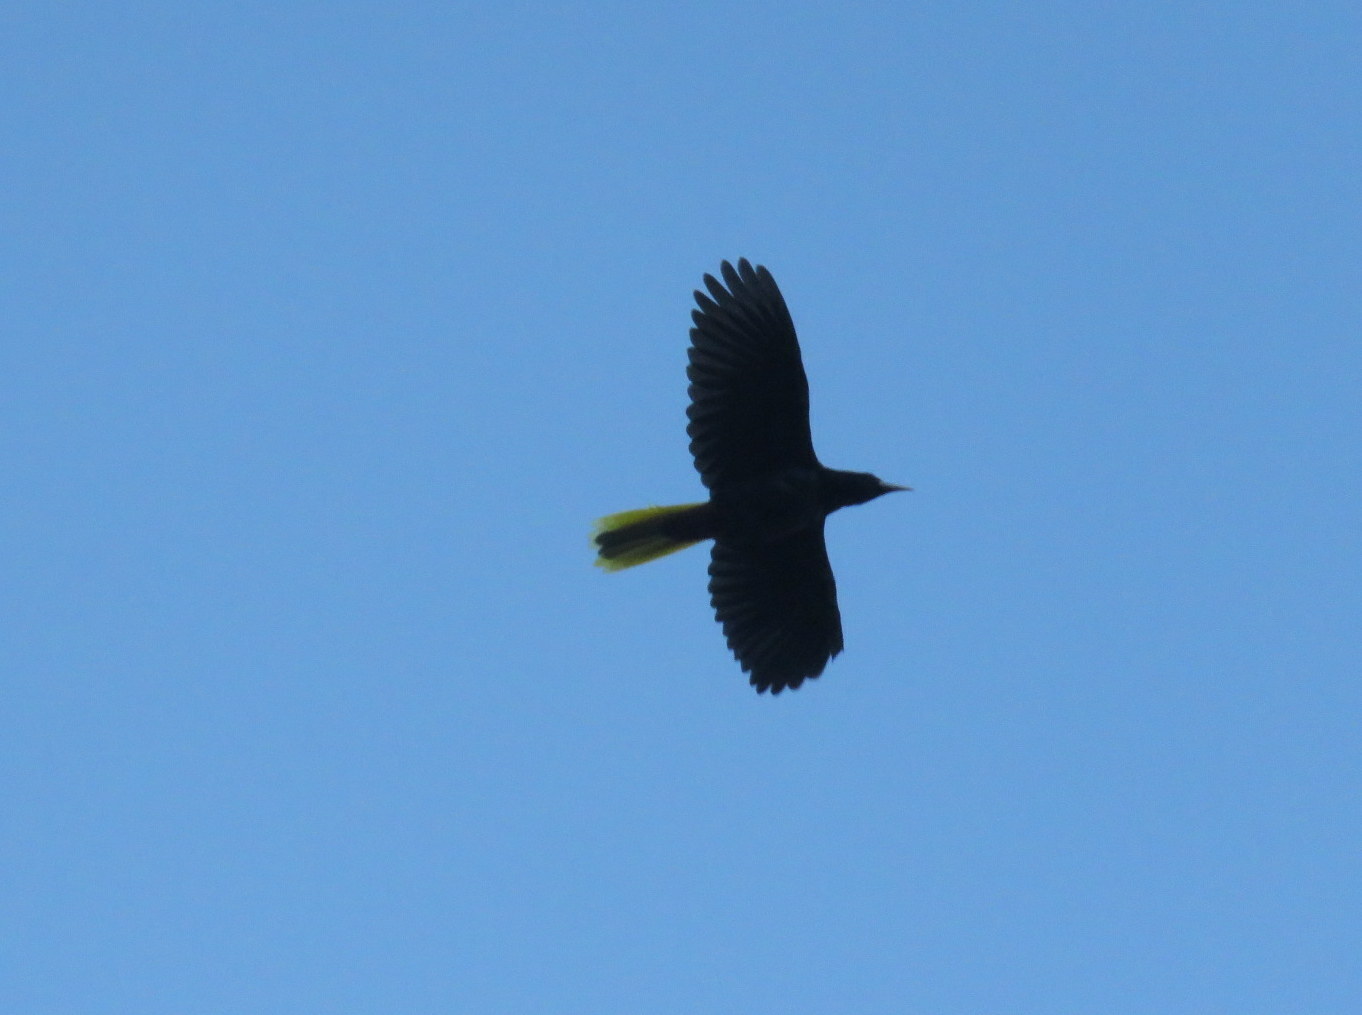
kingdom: Animalia
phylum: Chordata
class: Aves
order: Passeriformes
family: Icteridae
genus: Psarocolius
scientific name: Psarocolius decumanus
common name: Crested oropendola
